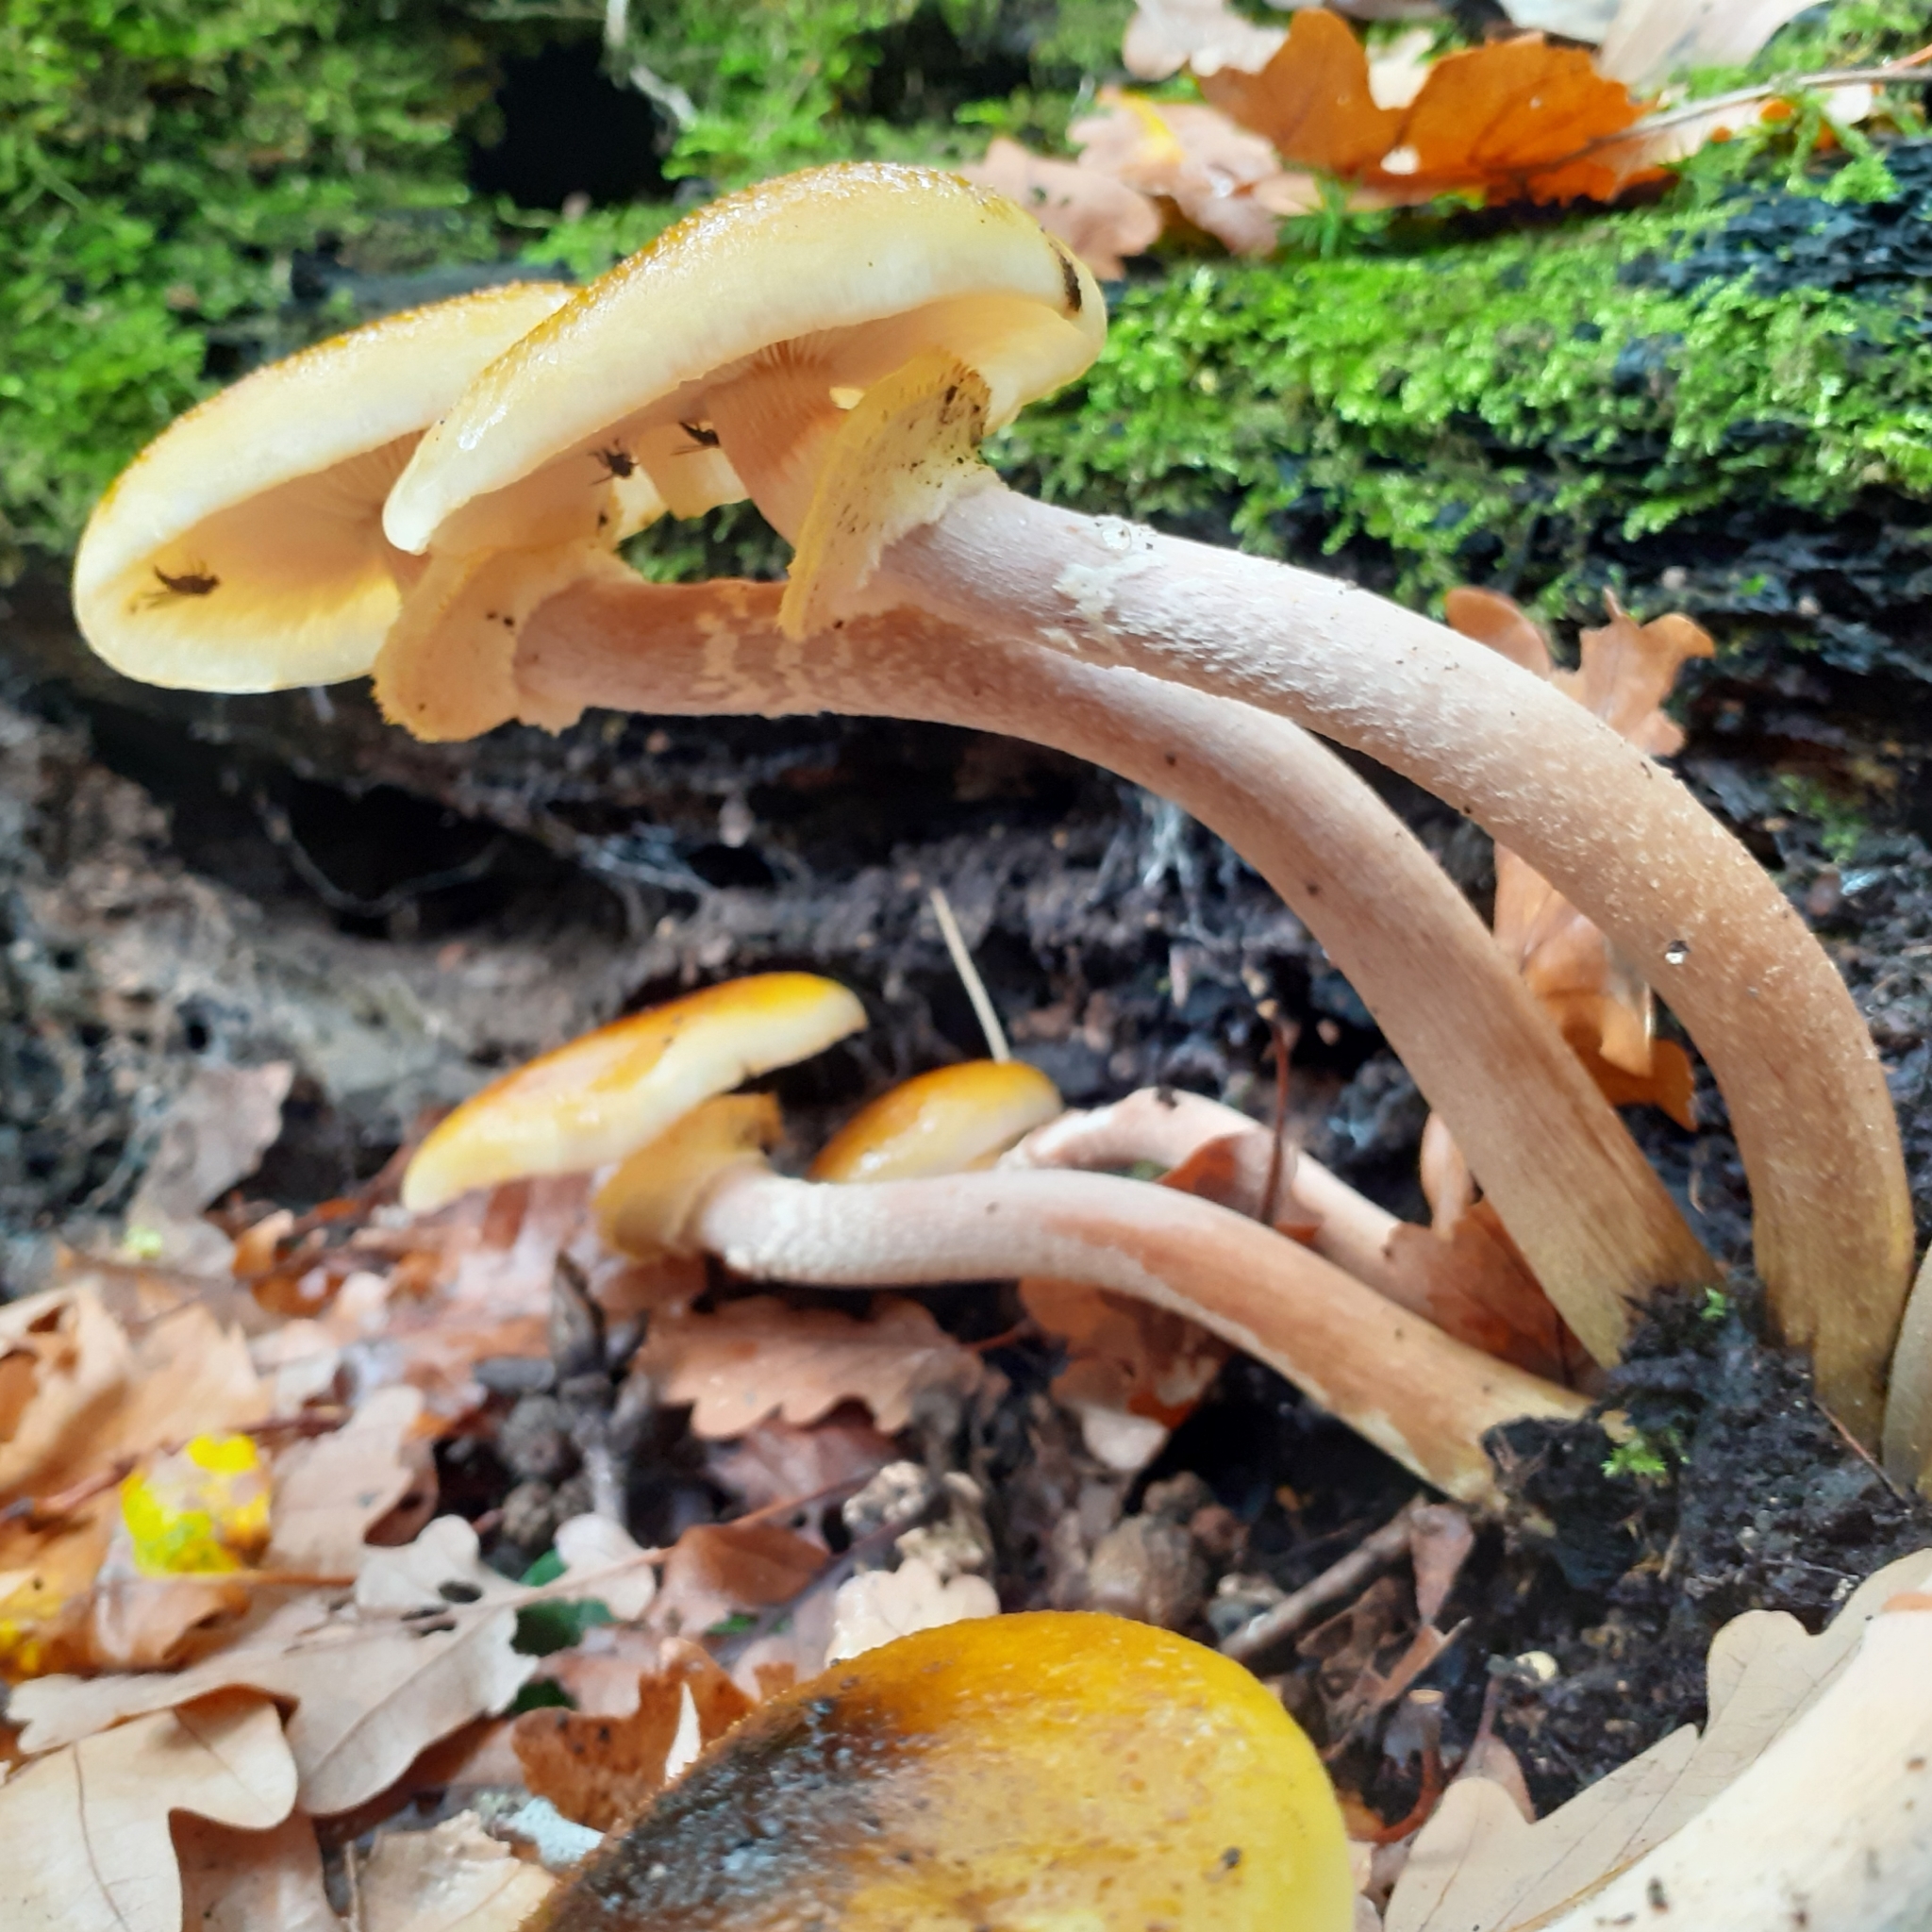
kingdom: Fungi
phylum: Basidiomycota
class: Agaricomycetes
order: Agaricales
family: Physalacriaceae
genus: Armillaria
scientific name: Armillaria mellea
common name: Honey fungus
